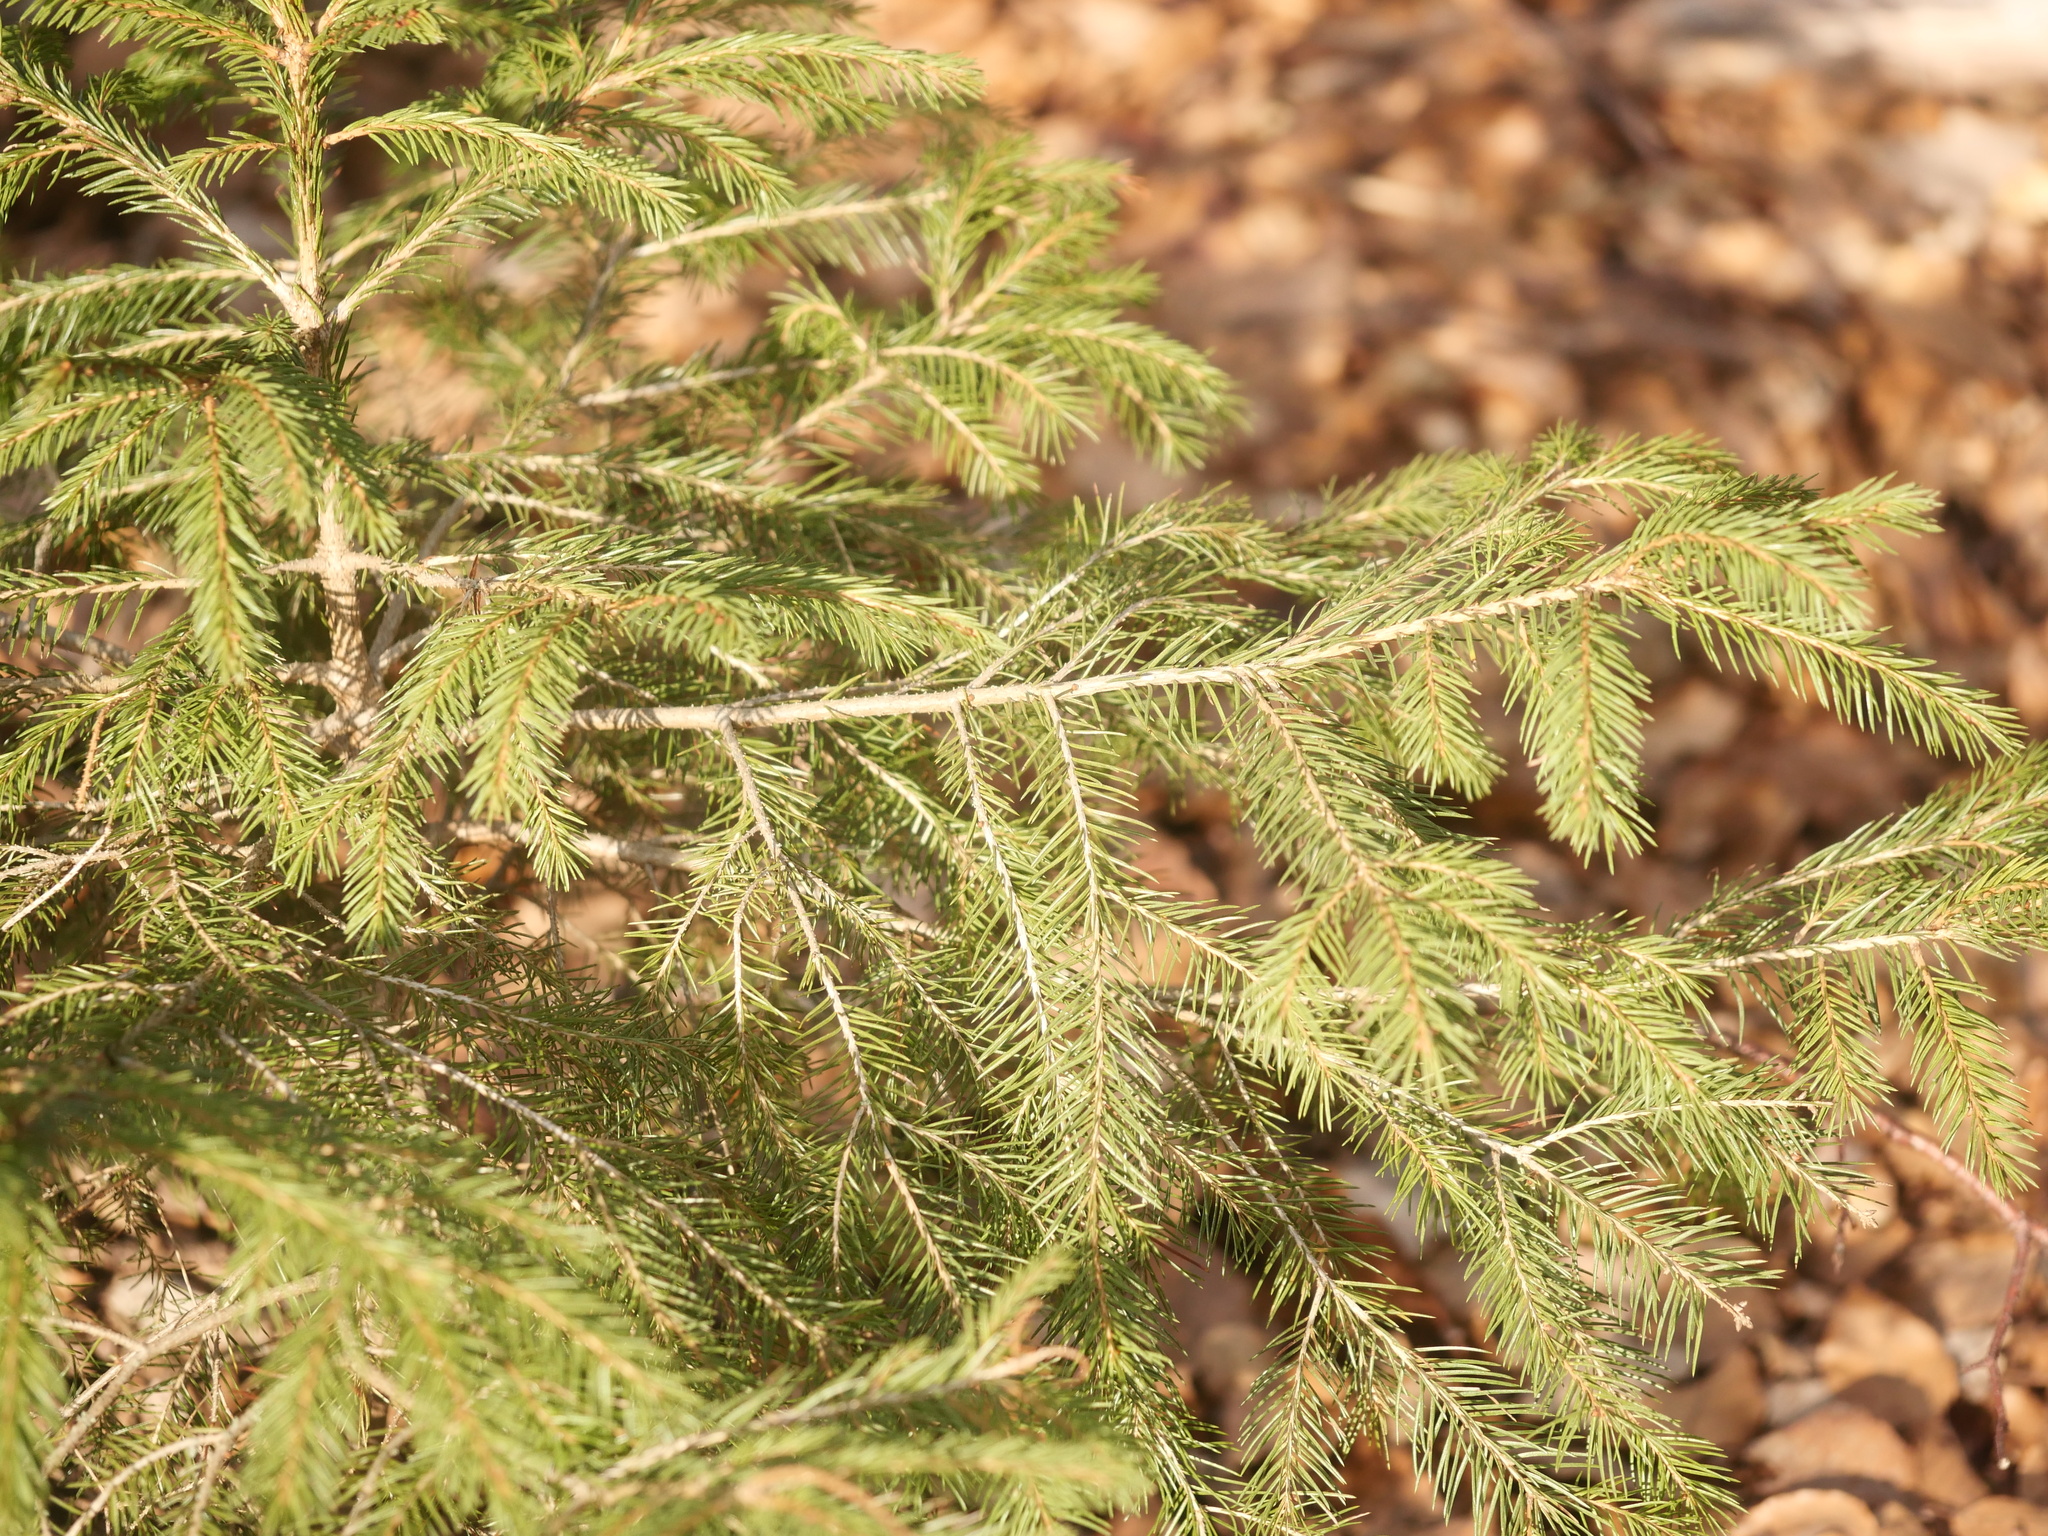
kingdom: Plantae
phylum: Tracheophyta
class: Pinopsida
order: Pinales
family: Pinaceae
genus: Picea
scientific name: Picea abies
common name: Norway spruce
